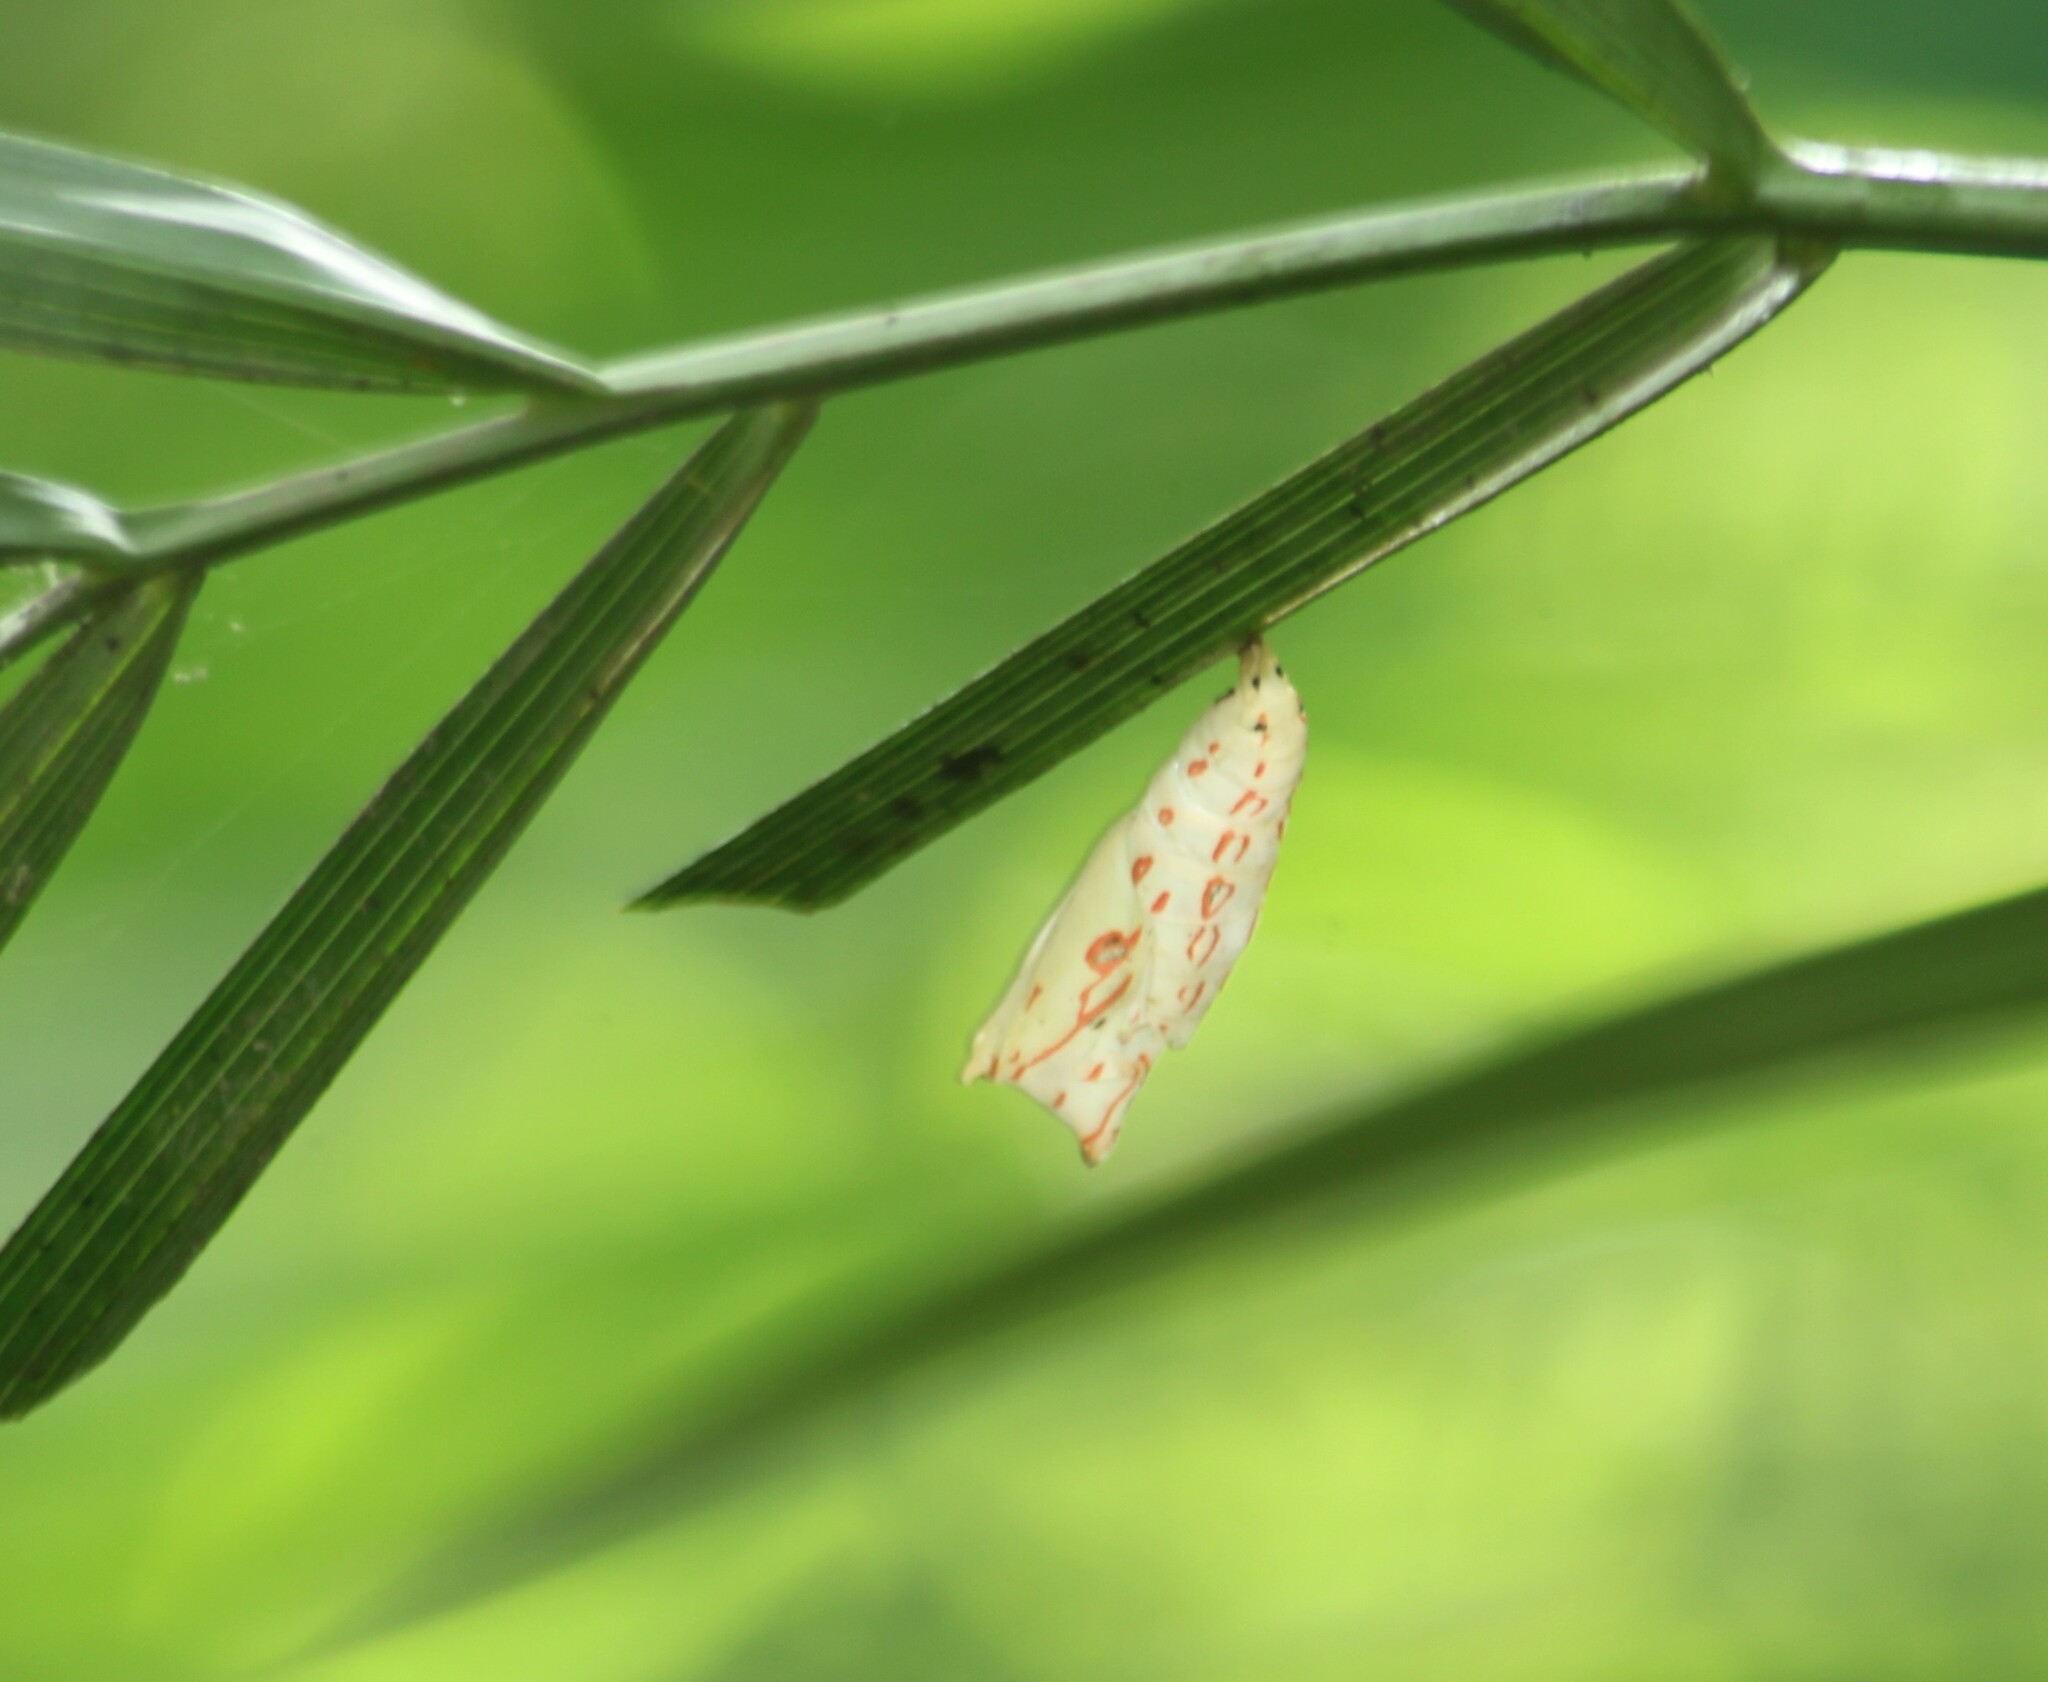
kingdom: Animalia
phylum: Arthropoda
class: Insecta
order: Lepidoptera
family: Nymphalidae
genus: Elymnias
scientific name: Elymnias caudata
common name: Tailed palmfly
